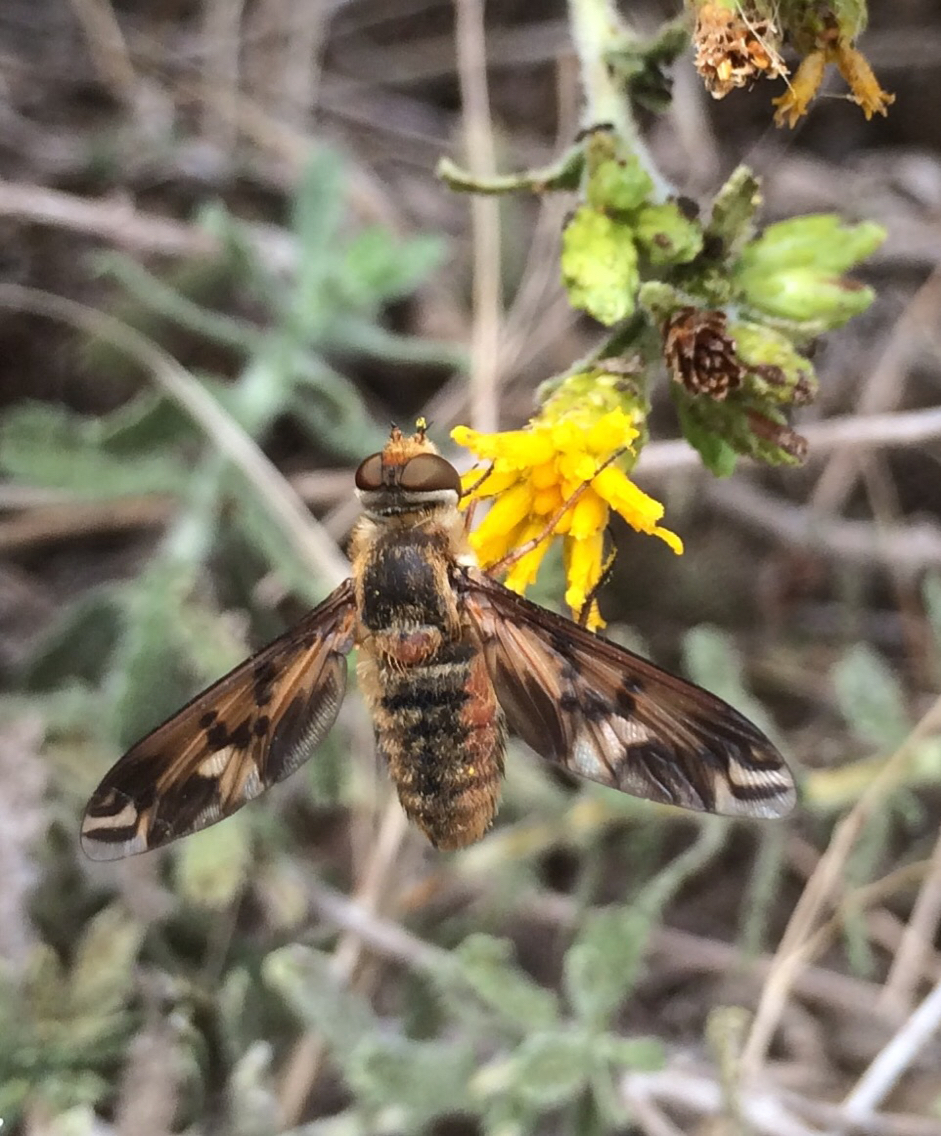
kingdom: Animalia
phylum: Arthropoda
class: Insecta
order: Diptera
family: Bombyliidae
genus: Poecilanthrax
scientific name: Poecilanthrax arethusa
